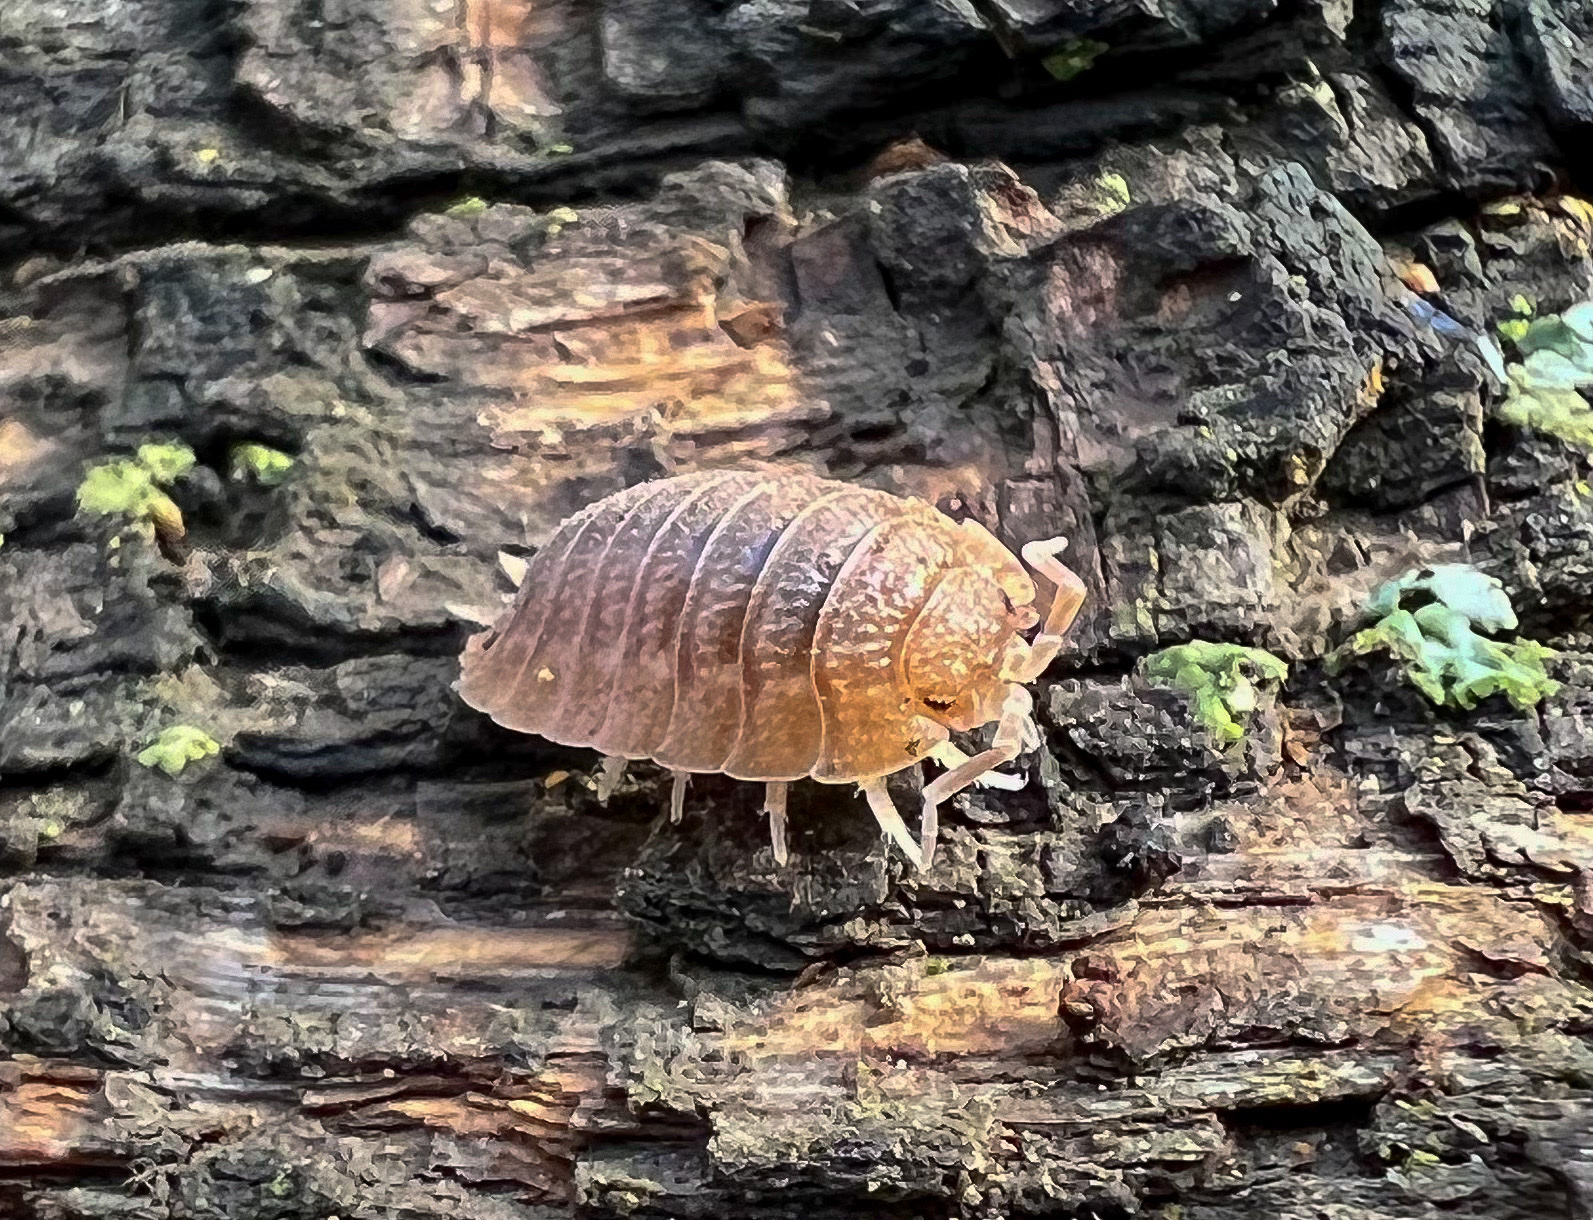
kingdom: Animalia
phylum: Arthropoda
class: Malacostraca
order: Isopoda
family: Porcellionidae
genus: Porcellio
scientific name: Porcellio dilatatus
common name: Isopod
